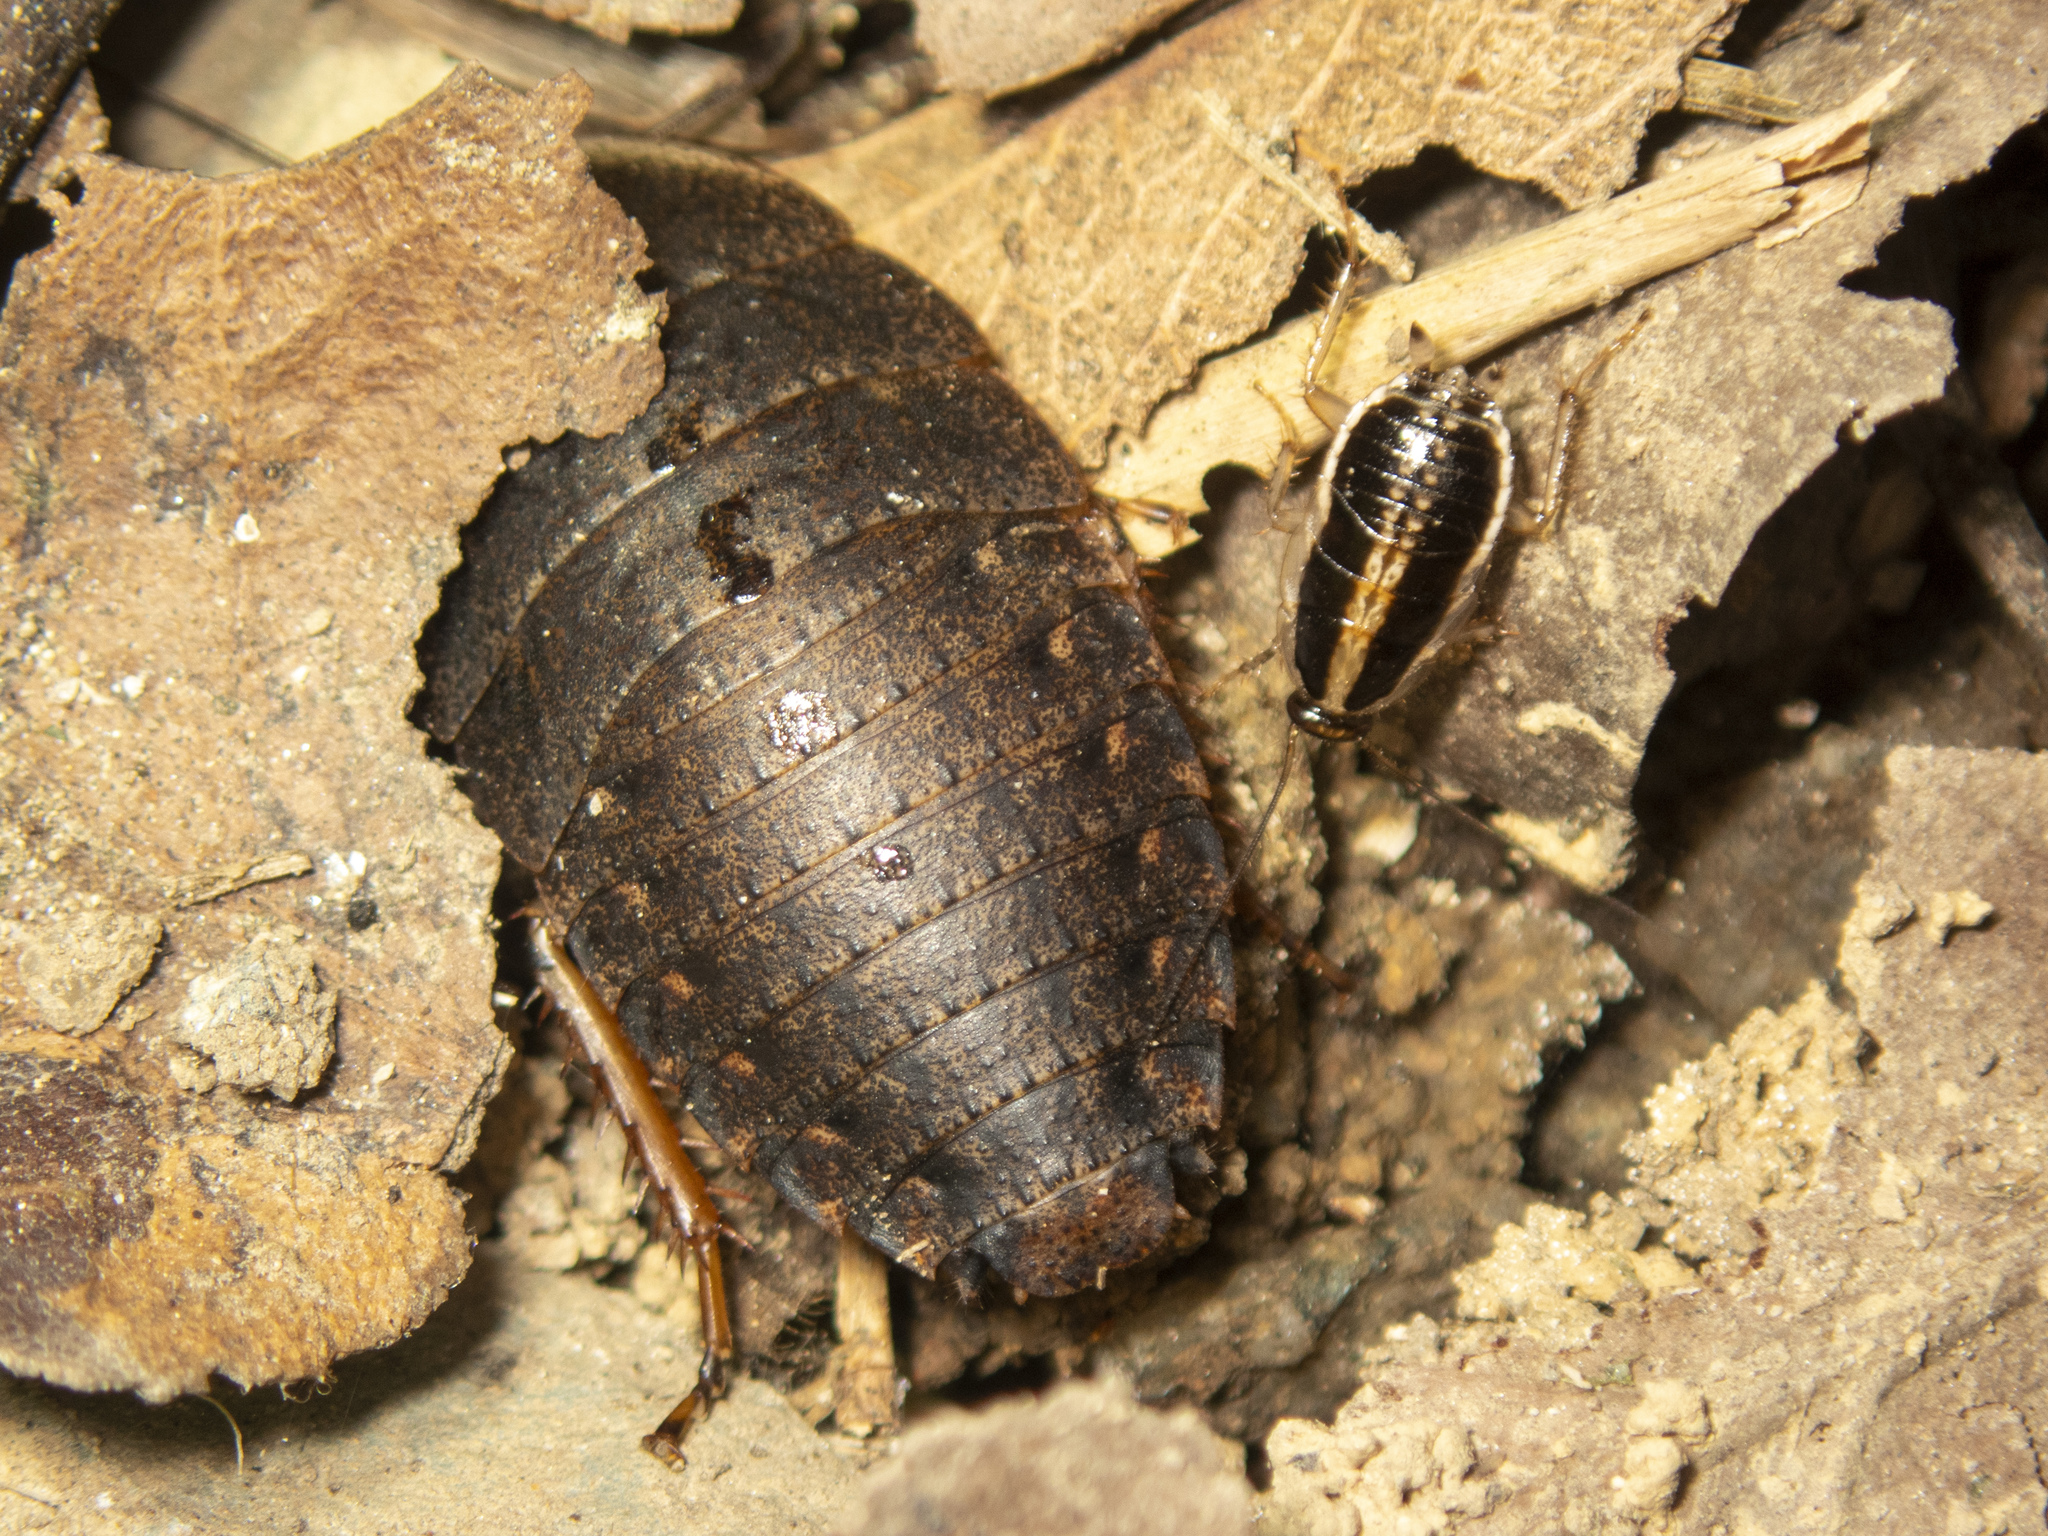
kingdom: Animalia
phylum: Arthropoda
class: Insecta
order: Blattodea
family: Blaberidae
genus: Opisthoplatia
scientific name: Opisthoplatia orientalis
